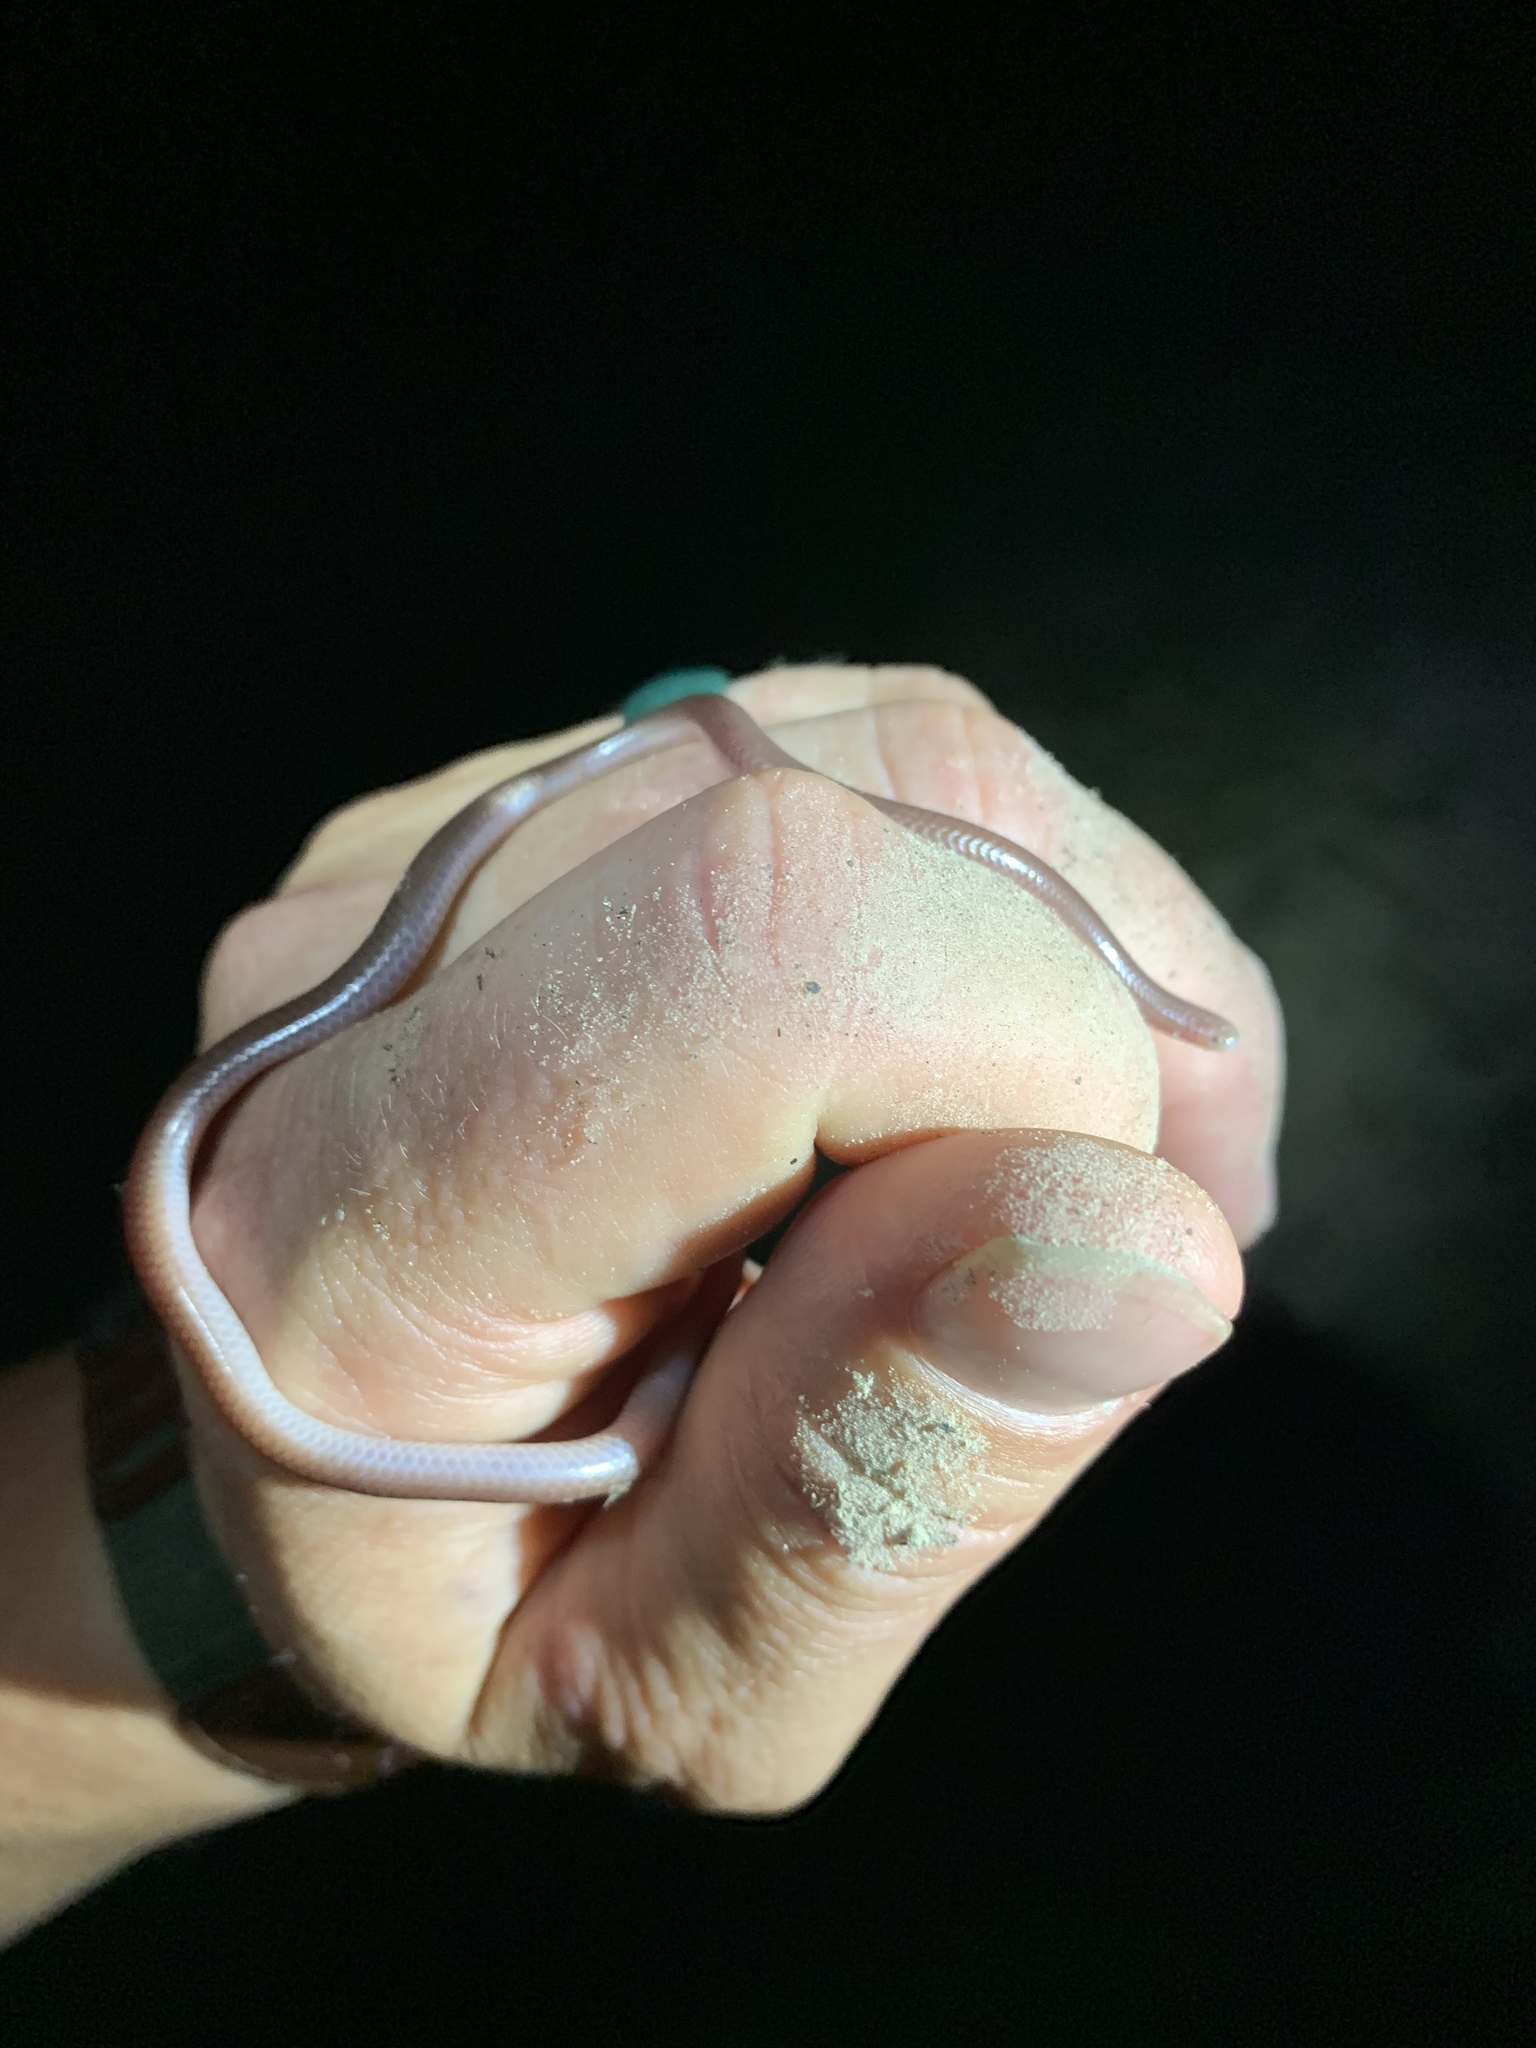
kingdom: Animalia
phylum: Chordata
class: Squamata
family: Leptotyphlopidae
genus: Rena
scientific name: Rena dulcis
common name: Texas blind snake
